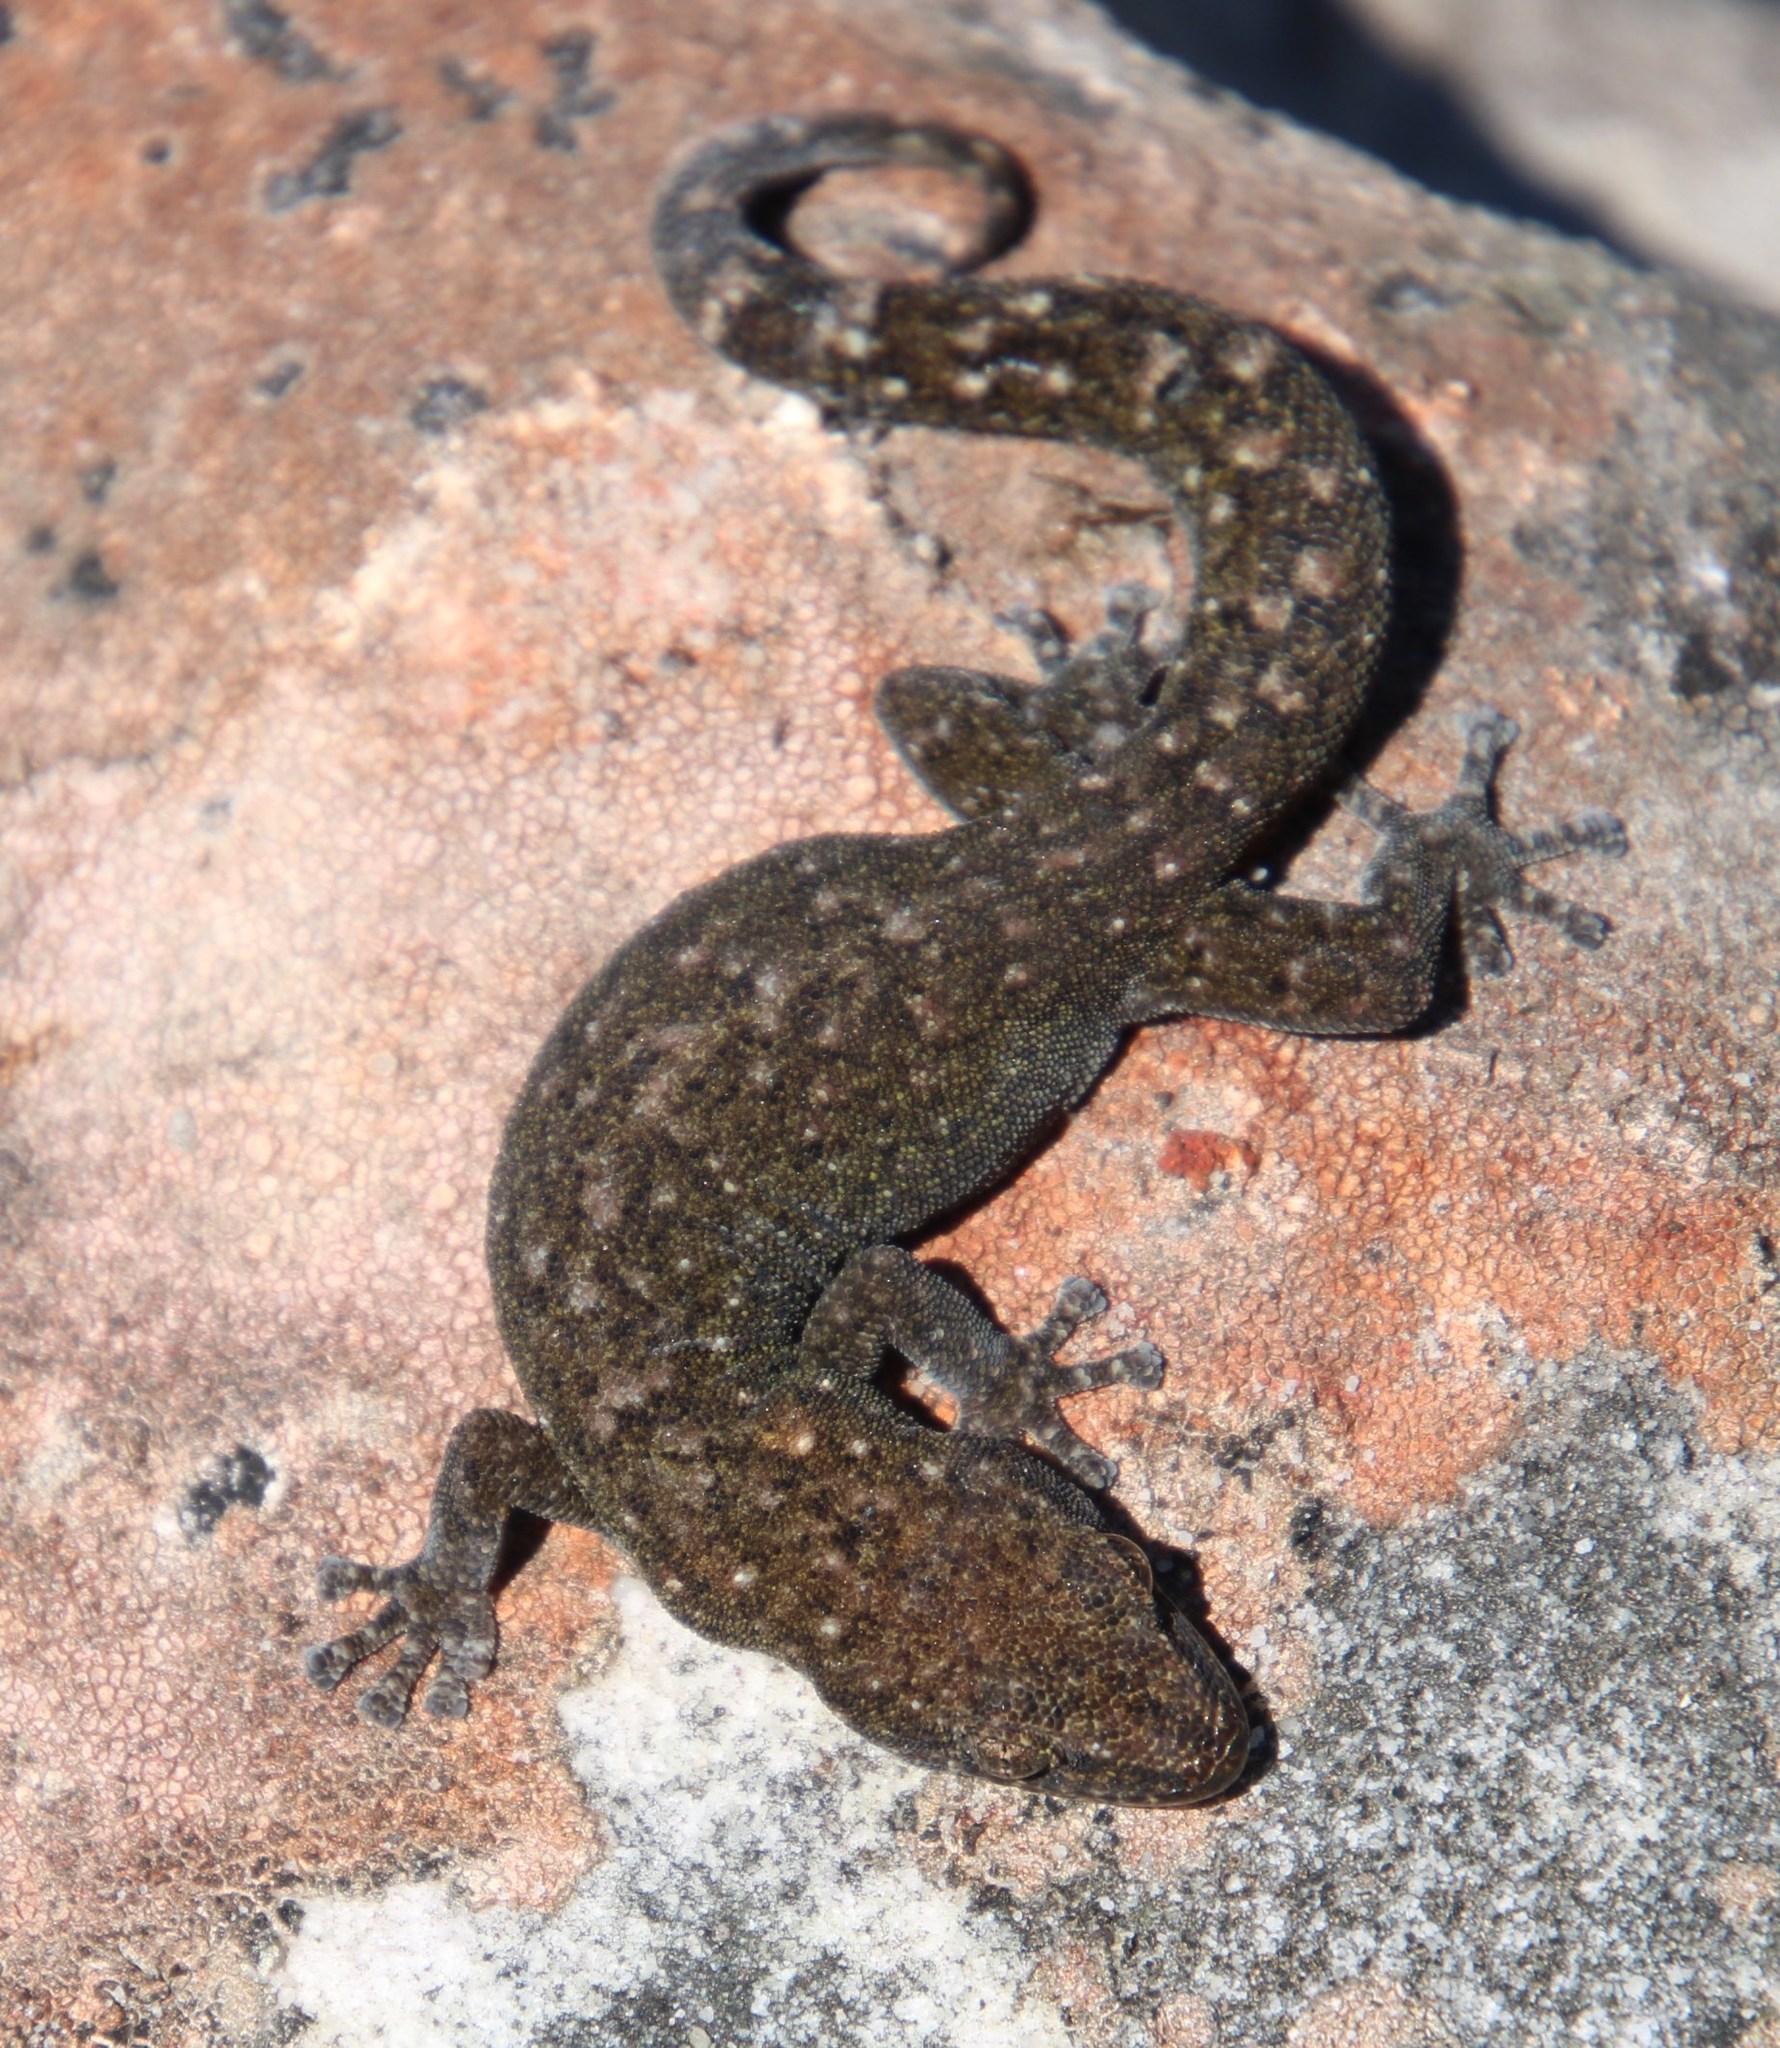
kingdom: Animalia
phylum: Chordata
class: Squamata
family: Gekkonidae
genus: Afrogecko
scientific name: Afrogecko porphyreus
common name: Marbled leaf-toed gecko
